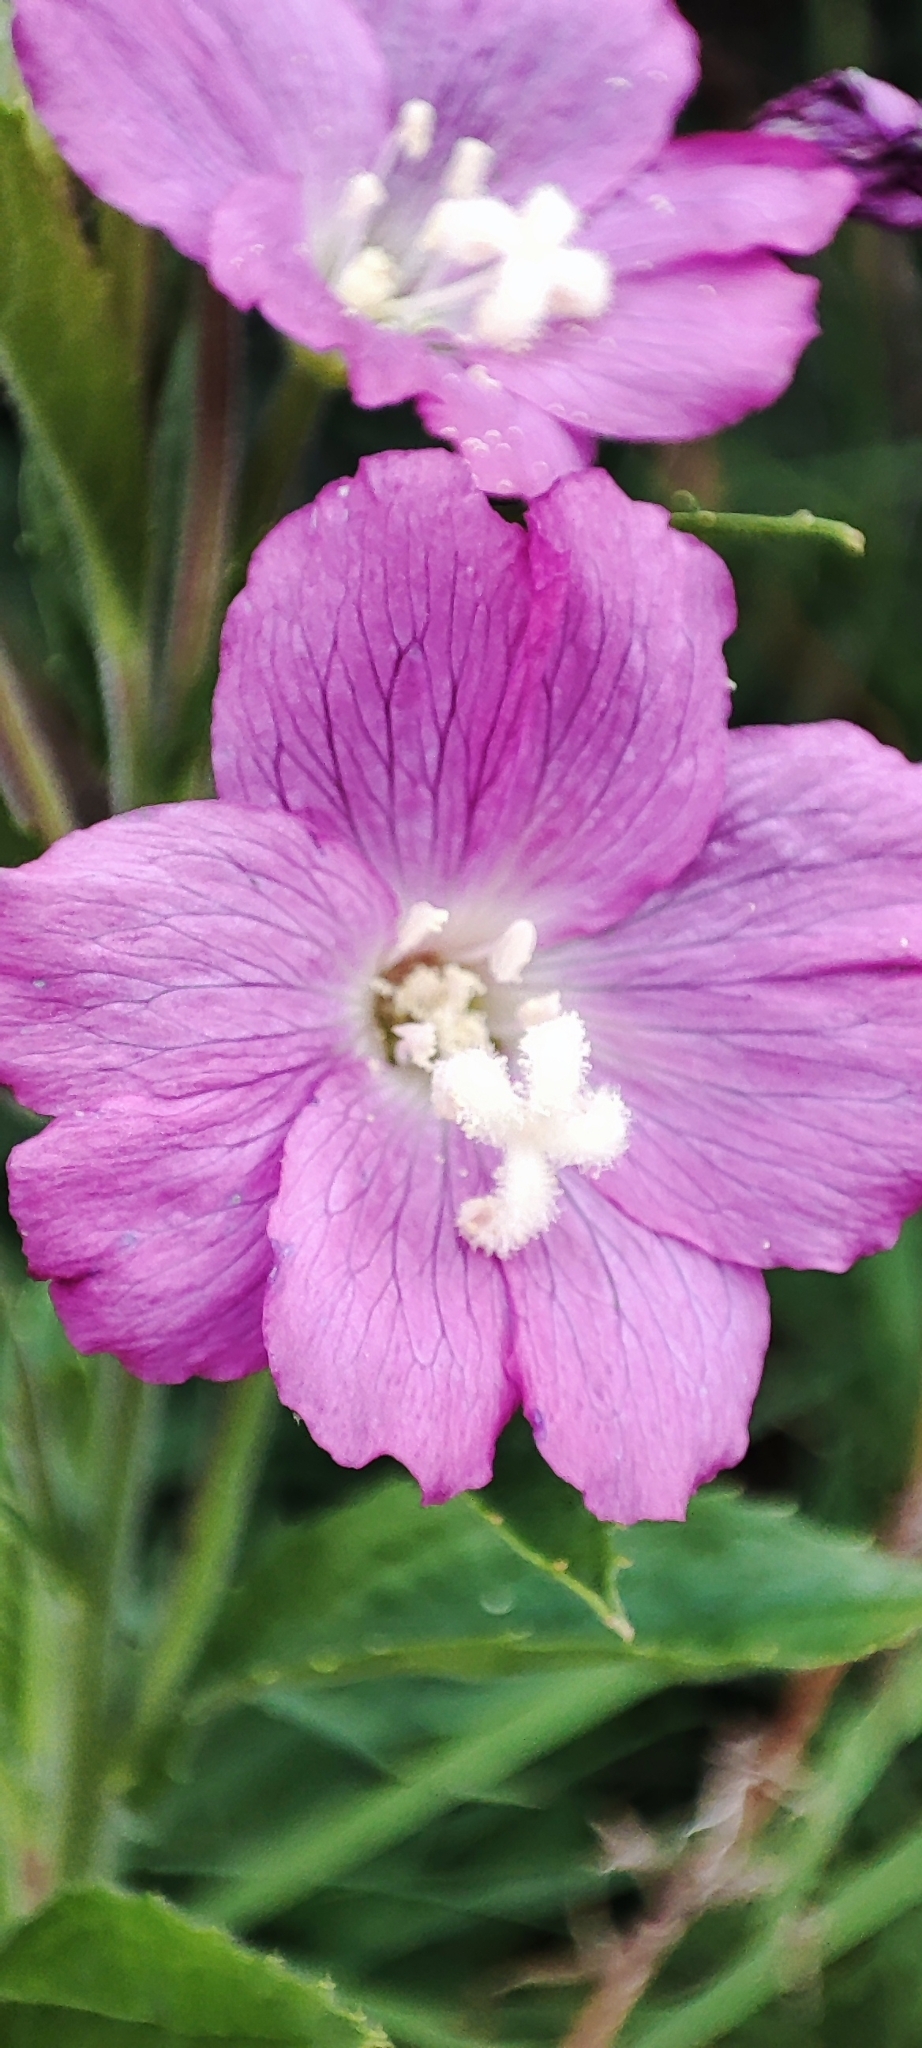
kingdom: Plantae
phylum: Tracheophyta
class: Magnoliopsida
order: Myrtales
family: Onagraceae
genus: Epilobium
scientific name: Epilobium hirsutum
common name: Great willowherb
